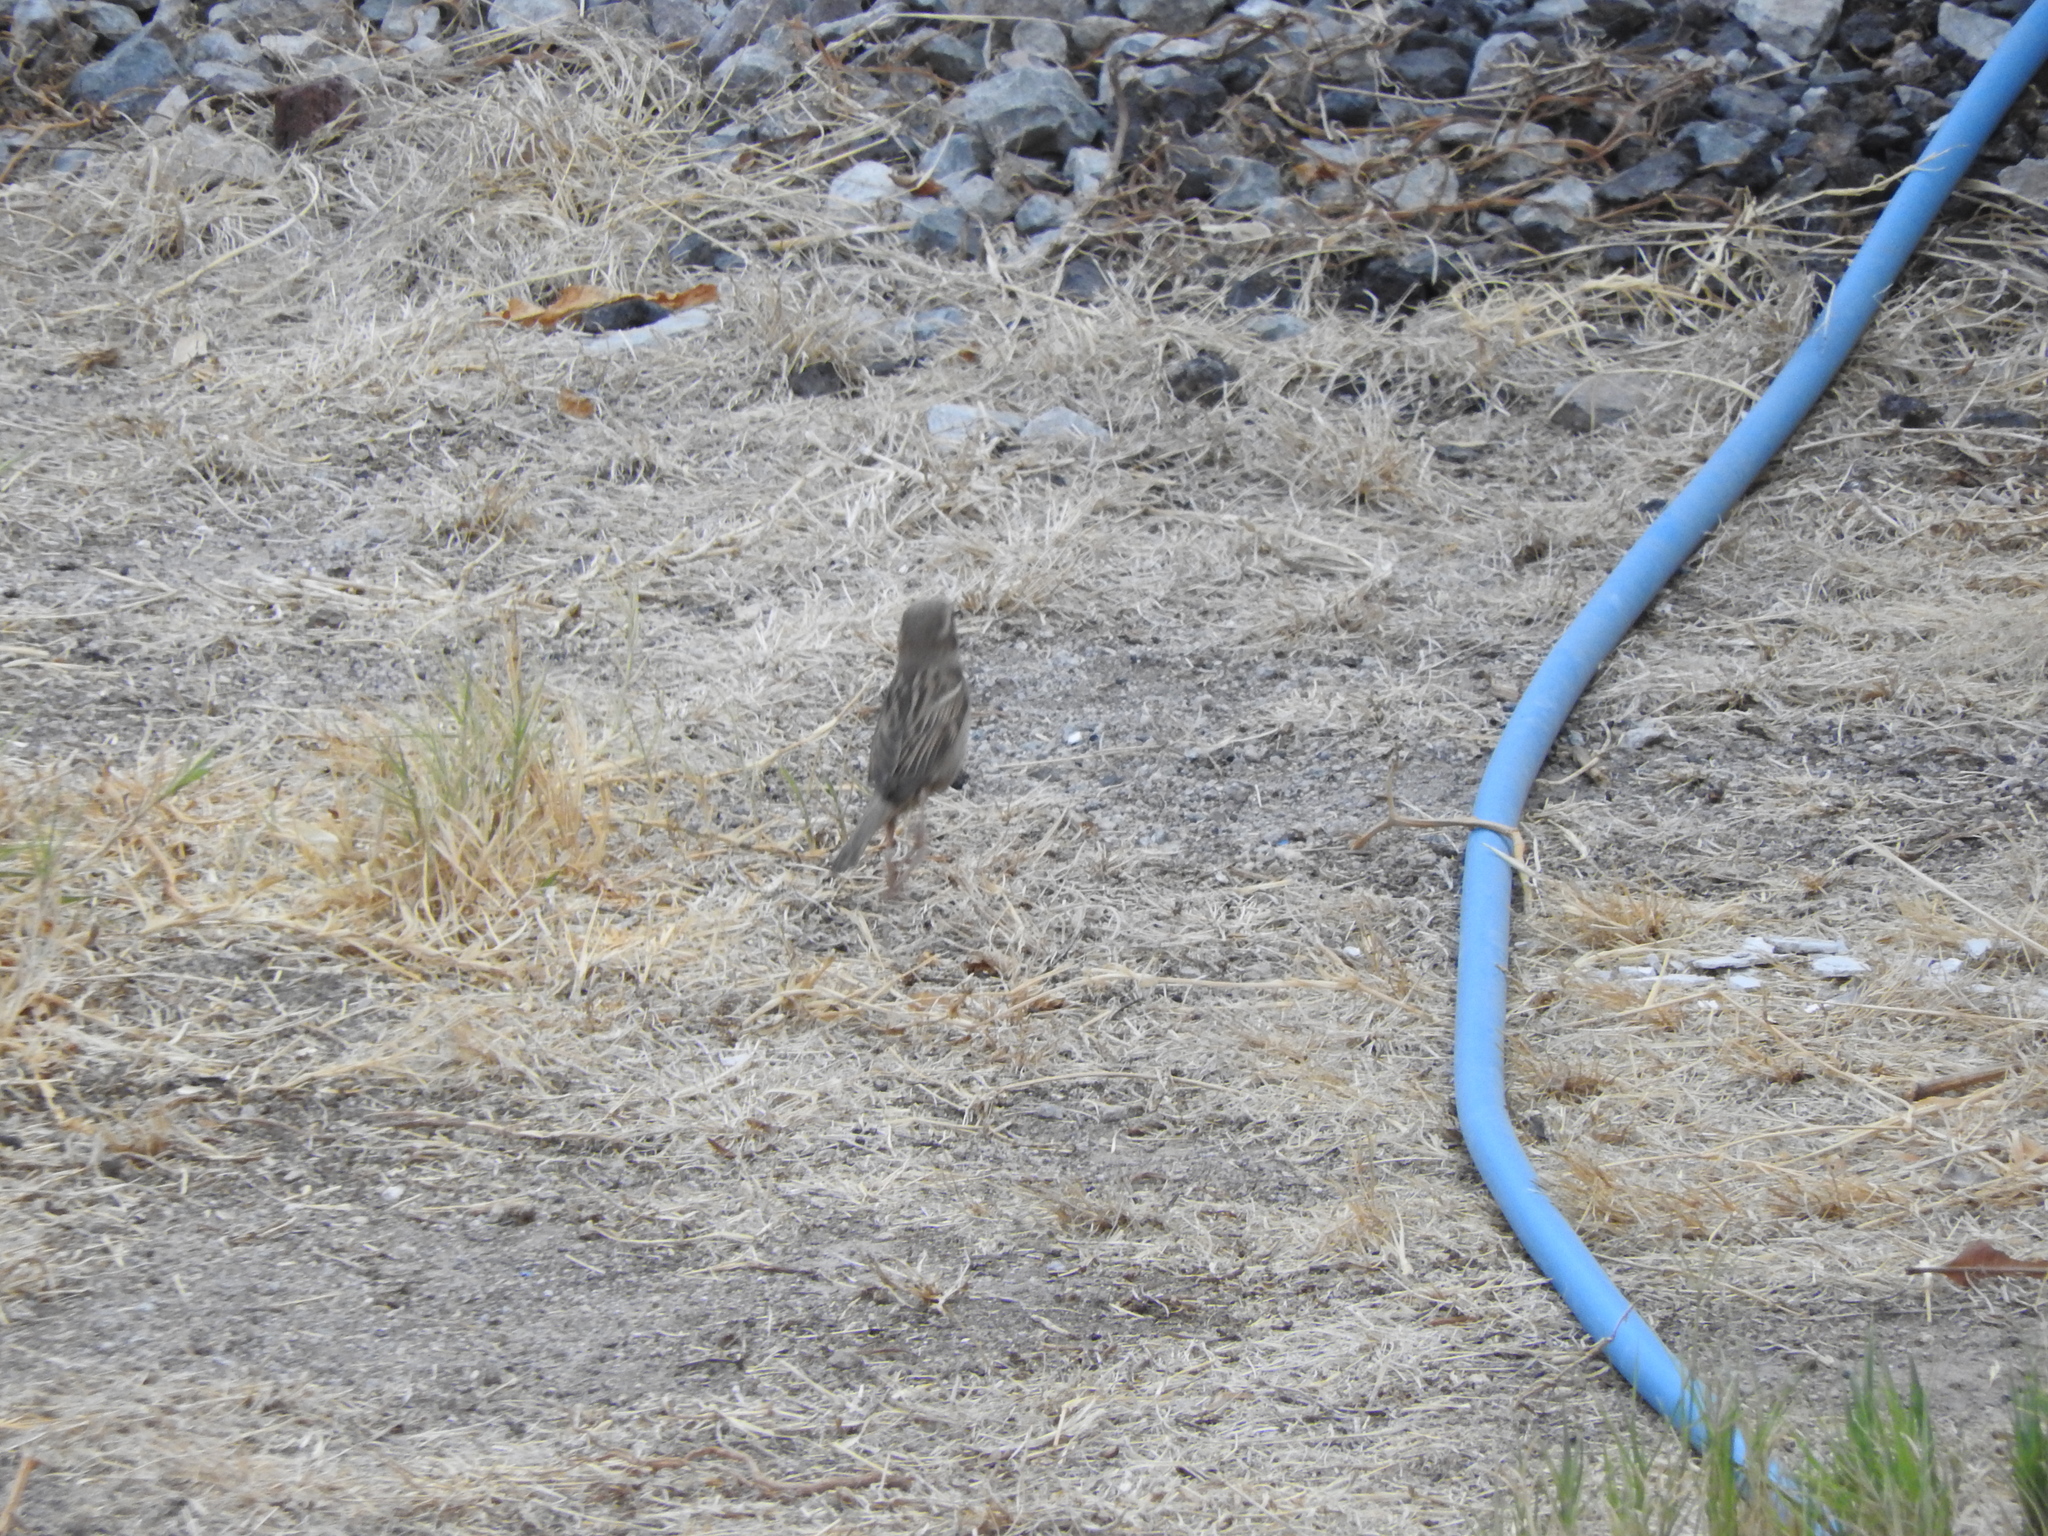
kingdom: Animalia
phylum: Chordata
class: Aves
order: Passeriformes
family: Passeridae
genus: Passer
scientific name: Passer domesticus
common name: House sparrow
